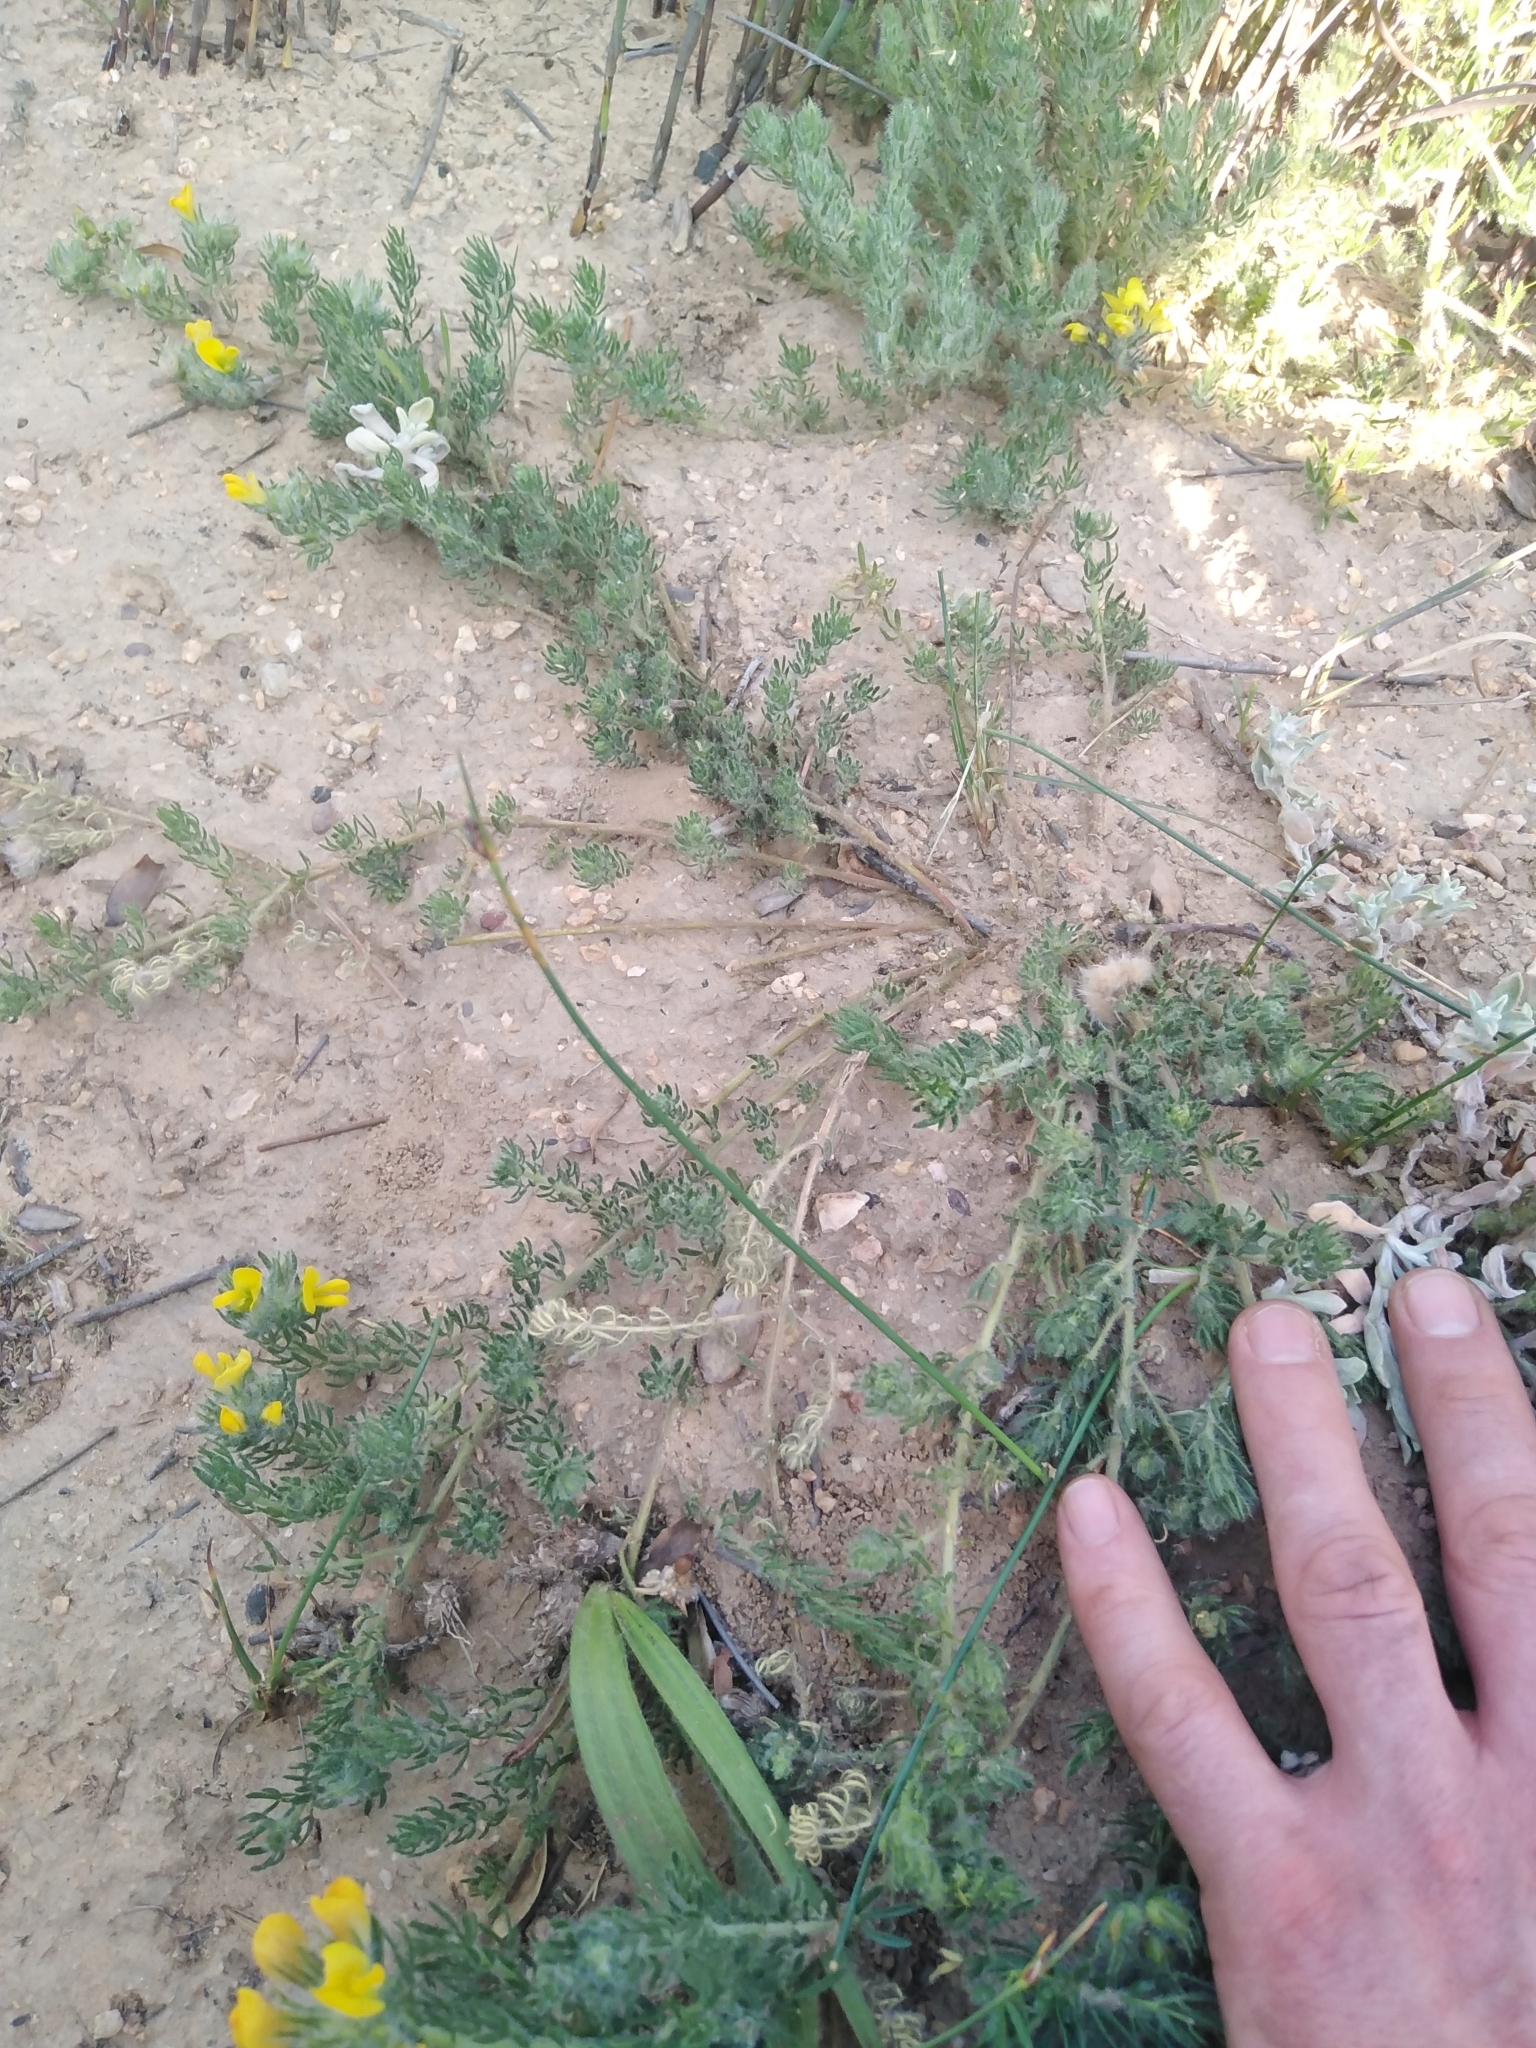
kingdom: Plantae
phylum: Tracheophyta
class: Magnoliopsida
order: Fabales
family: Fabaceae
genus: Lotononis
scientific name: Lotononis involucrata
